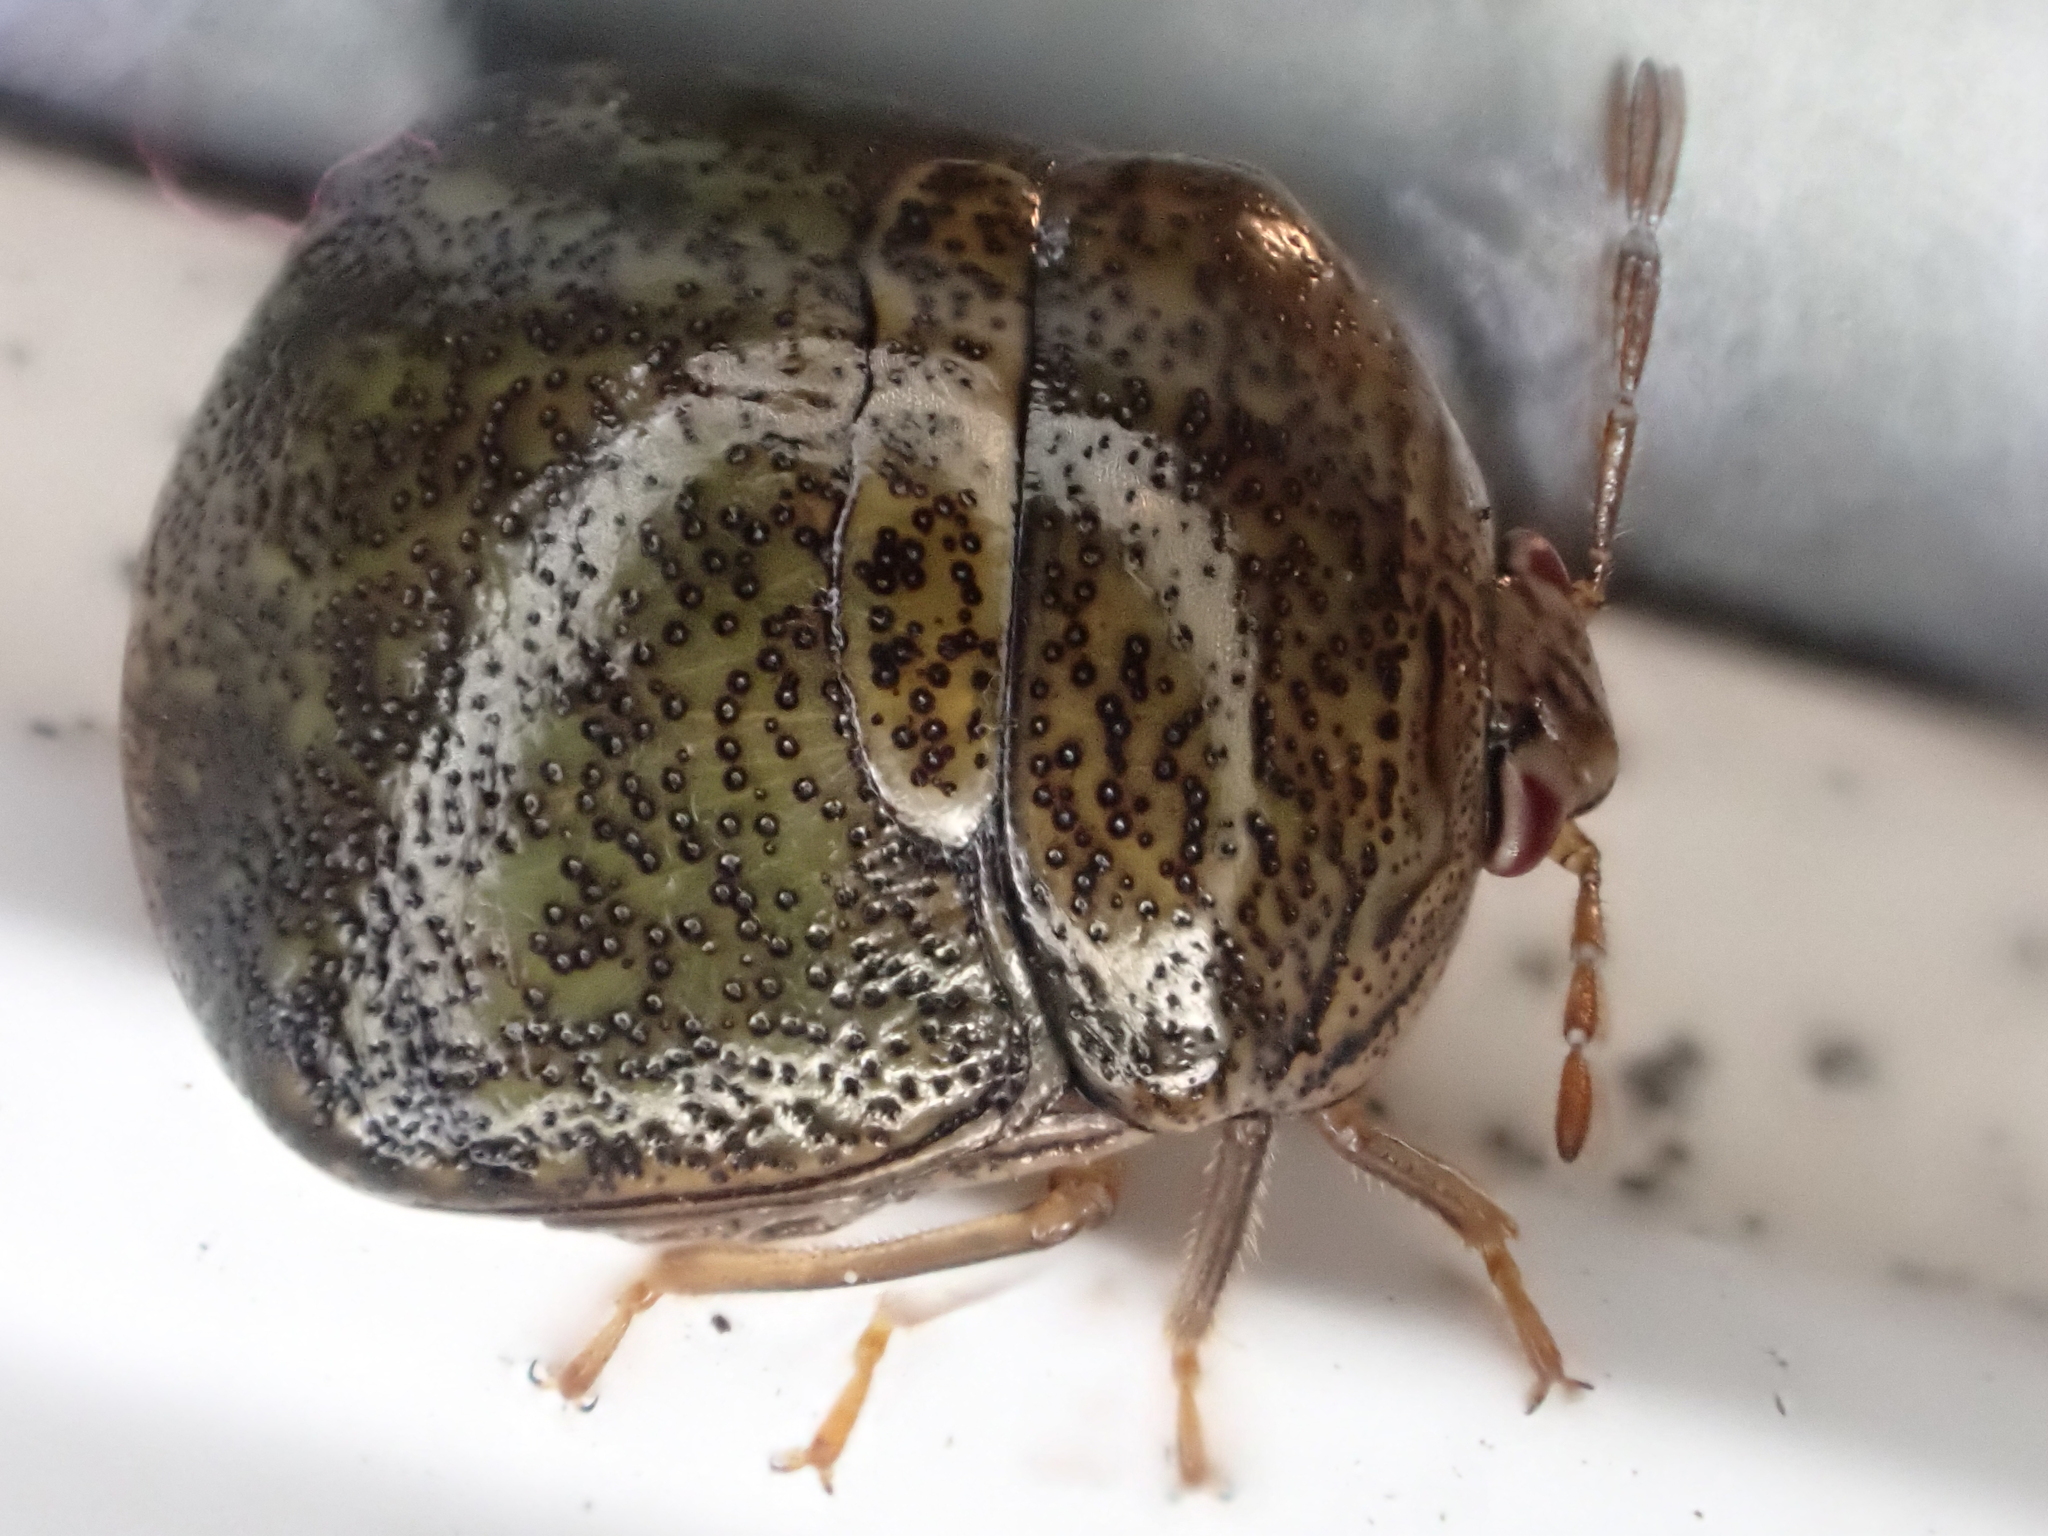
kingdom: Animalia
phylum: Arthropoda
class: Insecta
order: Hemiptera
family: Plataspidae
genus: Megacopta
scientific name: Megacopta cribraria
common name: Bean plataspid
